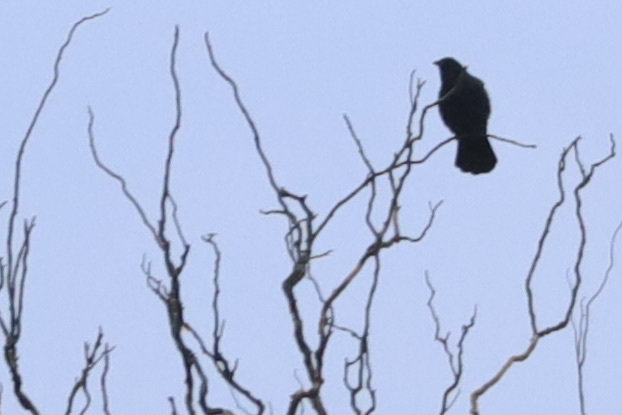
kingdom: Animalia
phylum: Chordata
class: Aves
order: Passeriformes
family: Corvidae
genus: Corvus
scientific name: Corvus brachyrhynchos
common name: American crow
